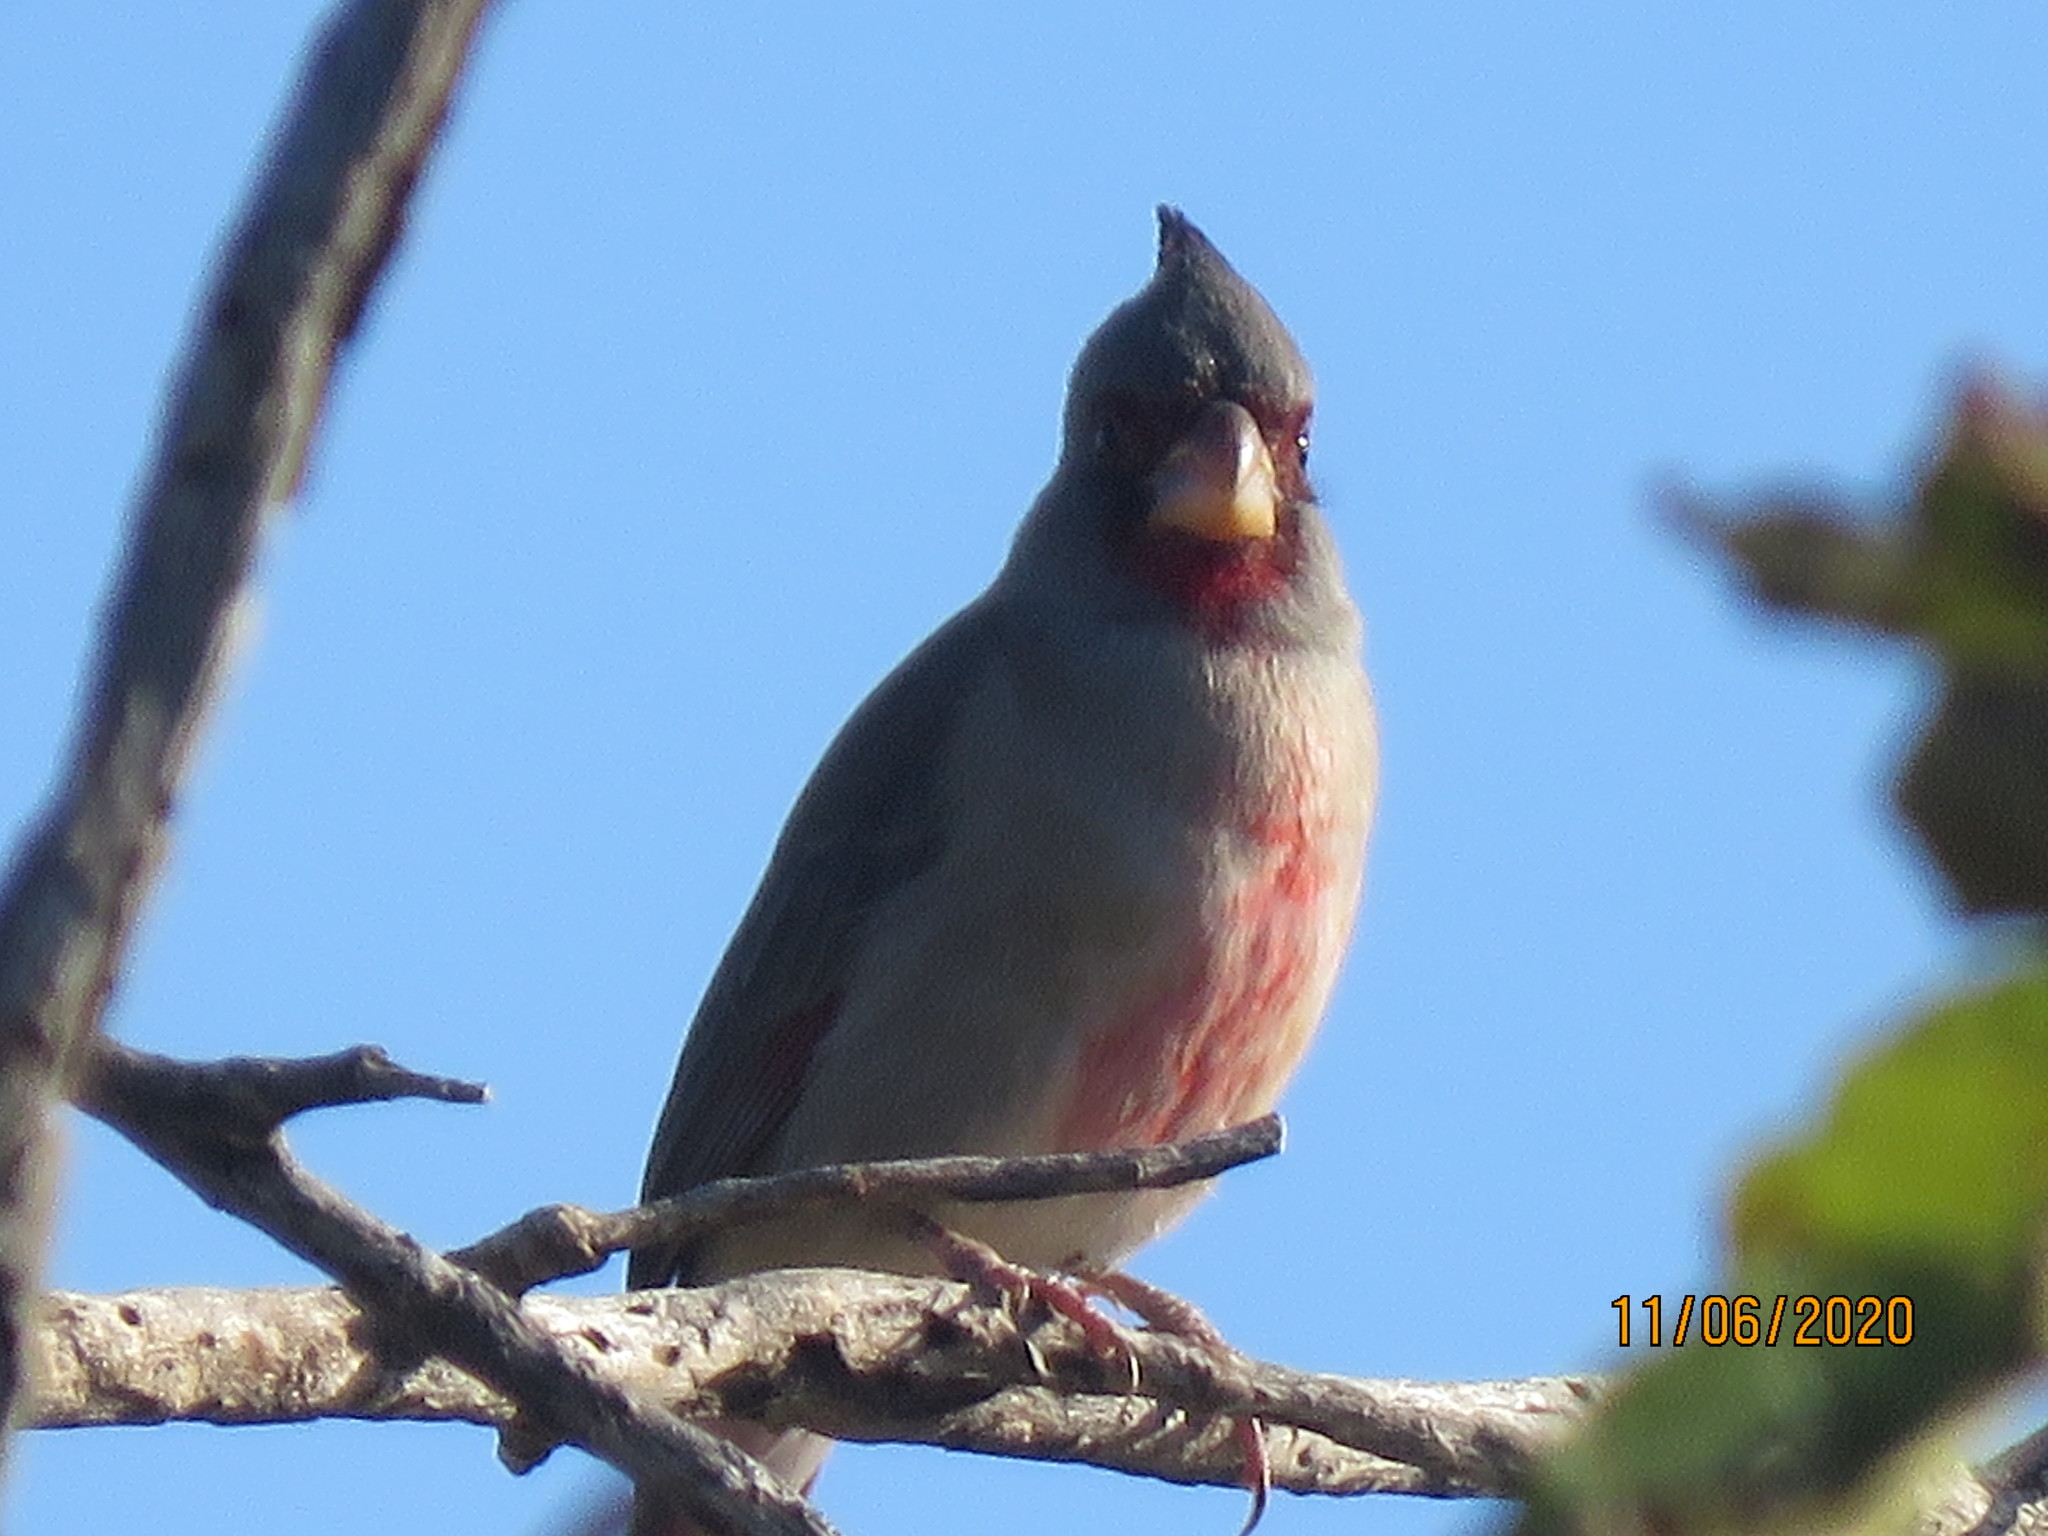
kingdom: Animalia
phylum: Chordata
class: Aves
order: Passeriformes
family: Cardinalidae
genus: Cardinalis
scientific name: Cardinalis sinuatus
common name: Pyrrhuloxia
